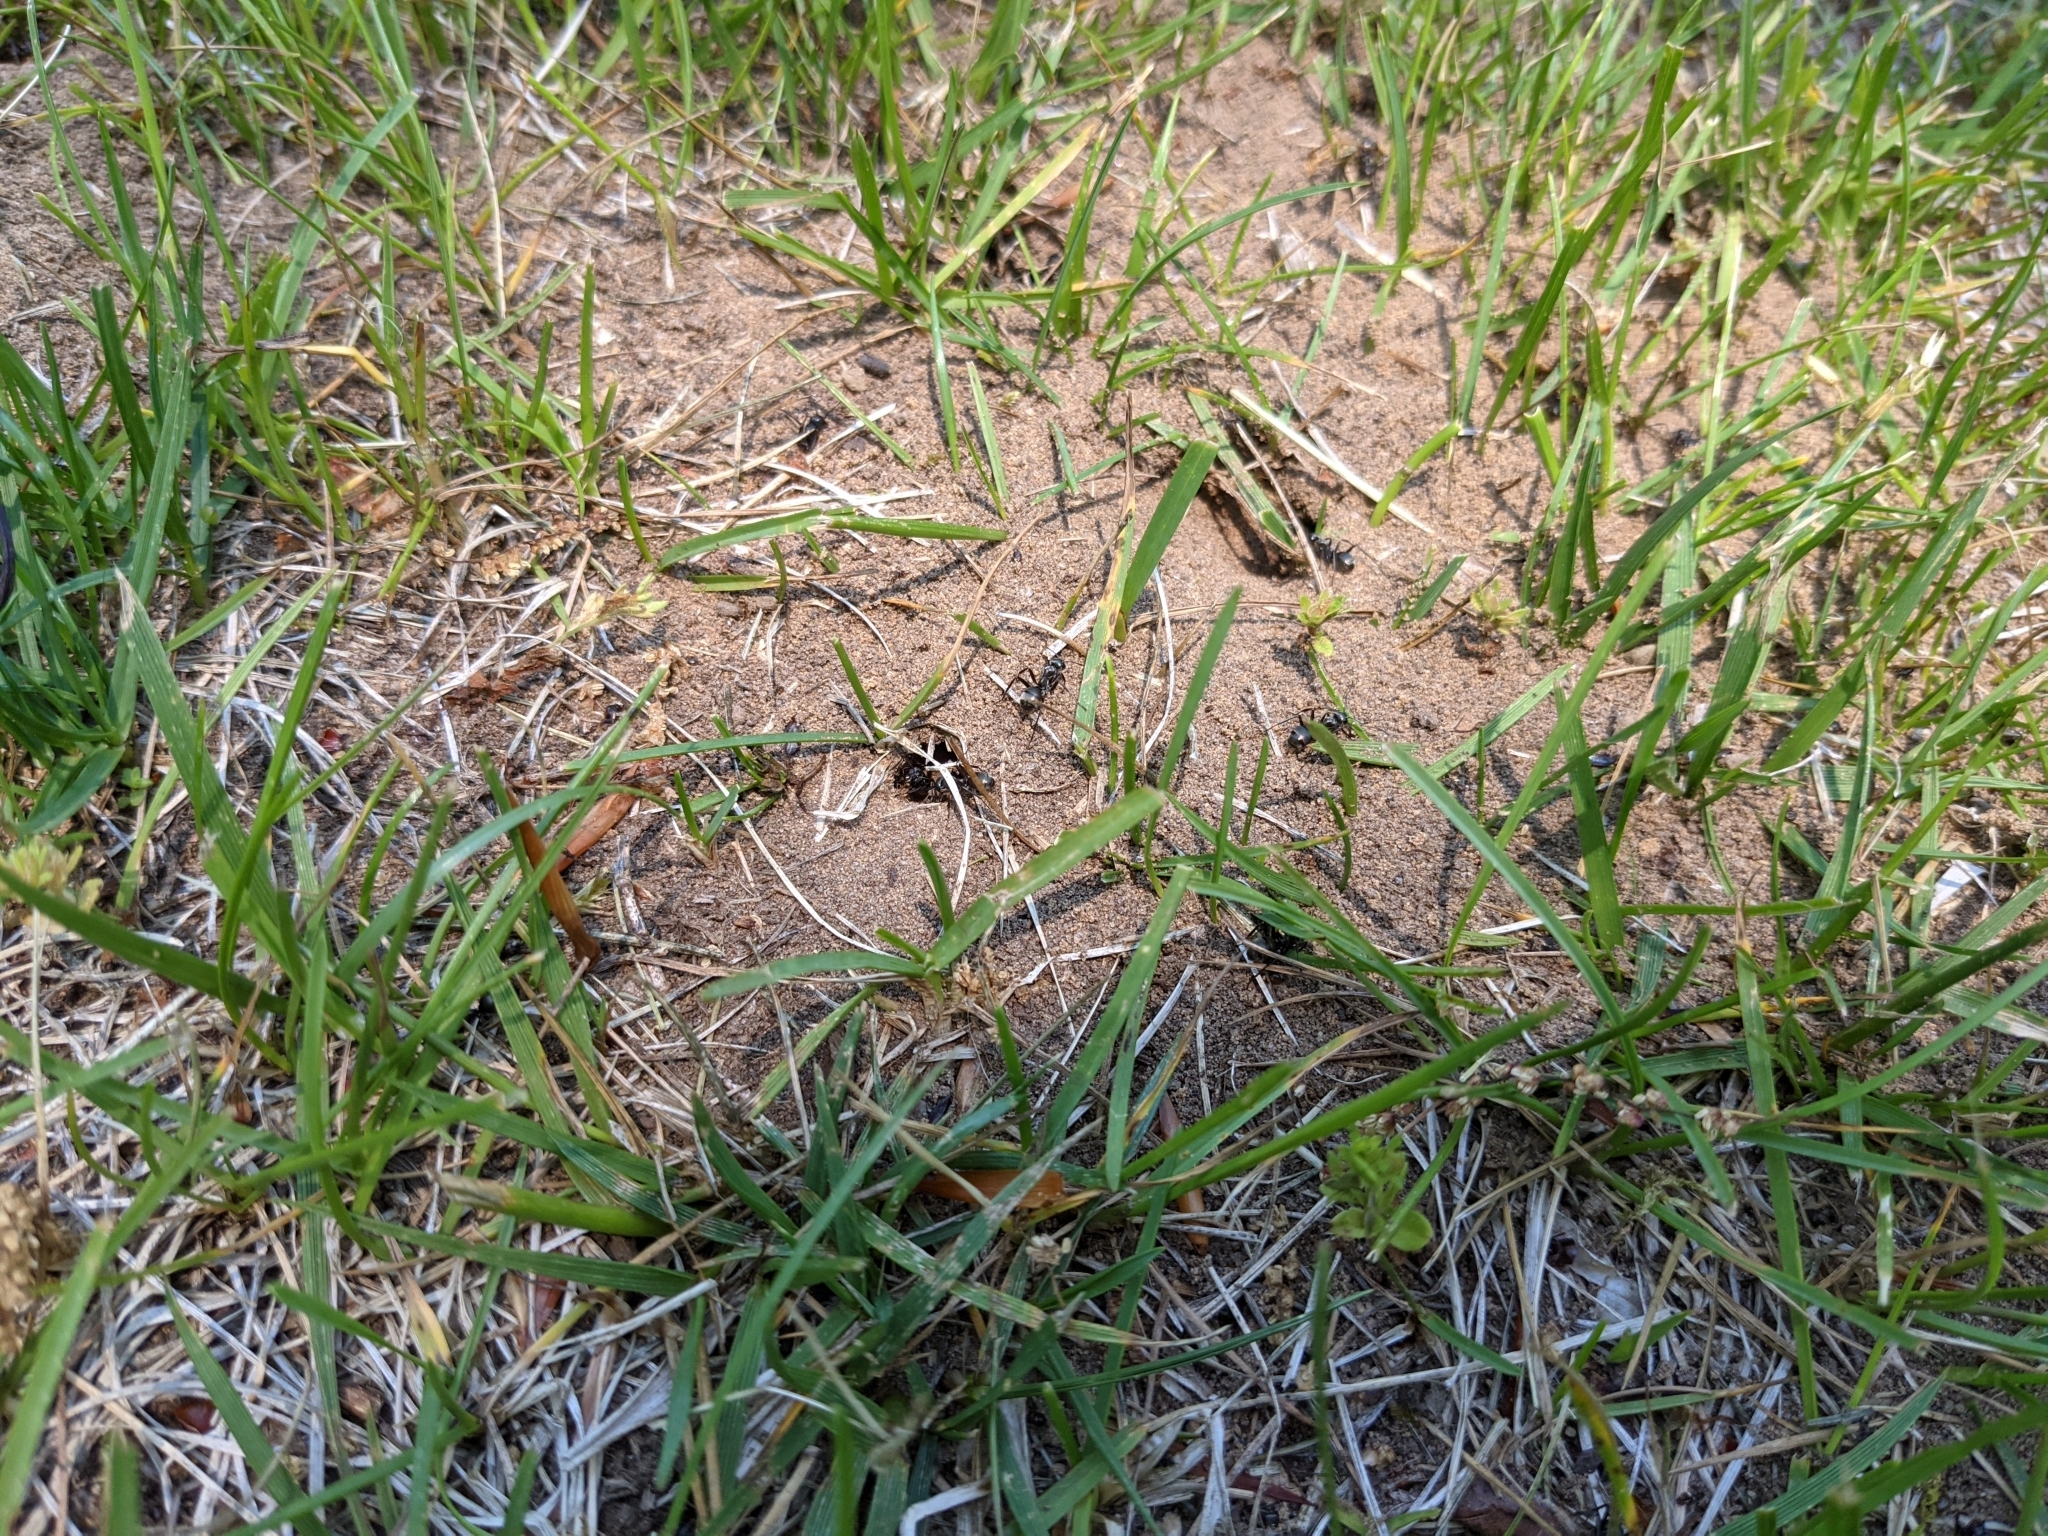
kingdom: Animalia
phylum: Arthropoda
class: Insecta
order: Hymenoptera
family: Formicidae
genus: Formica
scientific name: Formica
